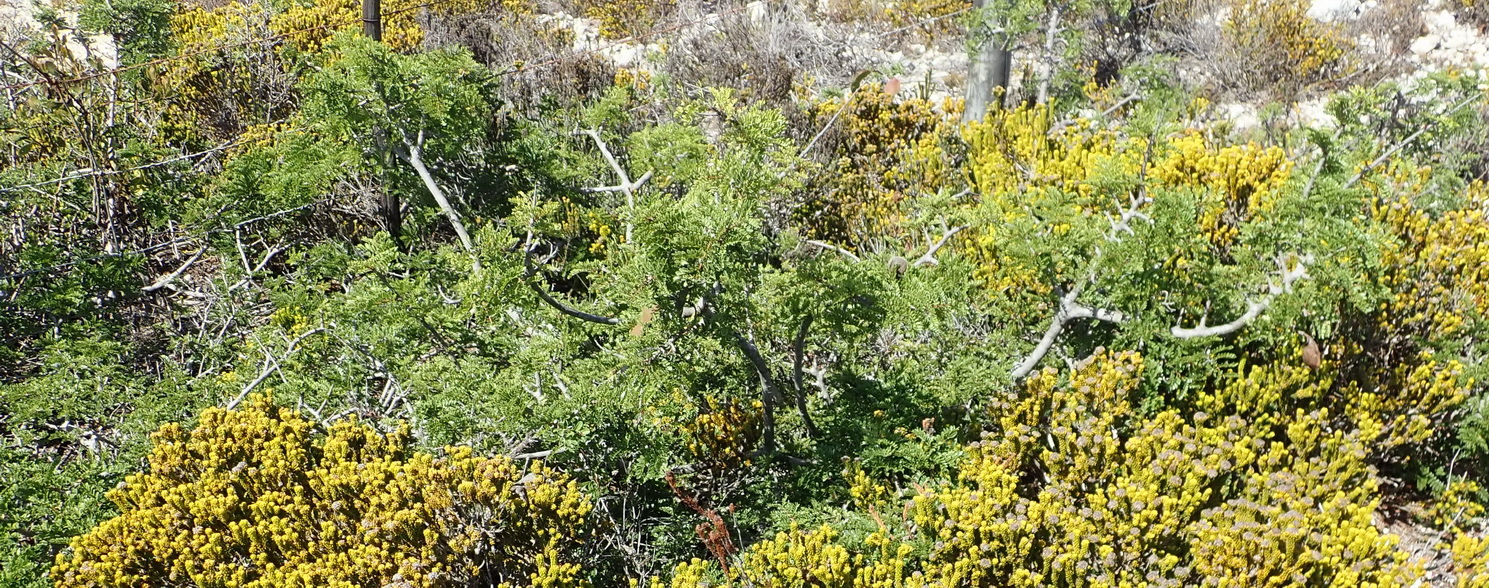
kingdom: Plantae
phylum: Tracheophyta
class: Magnoliopsida
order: Fabales
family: Fabaceae
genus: Schotia
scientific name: Schotia afra
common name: Hottentot's bean
